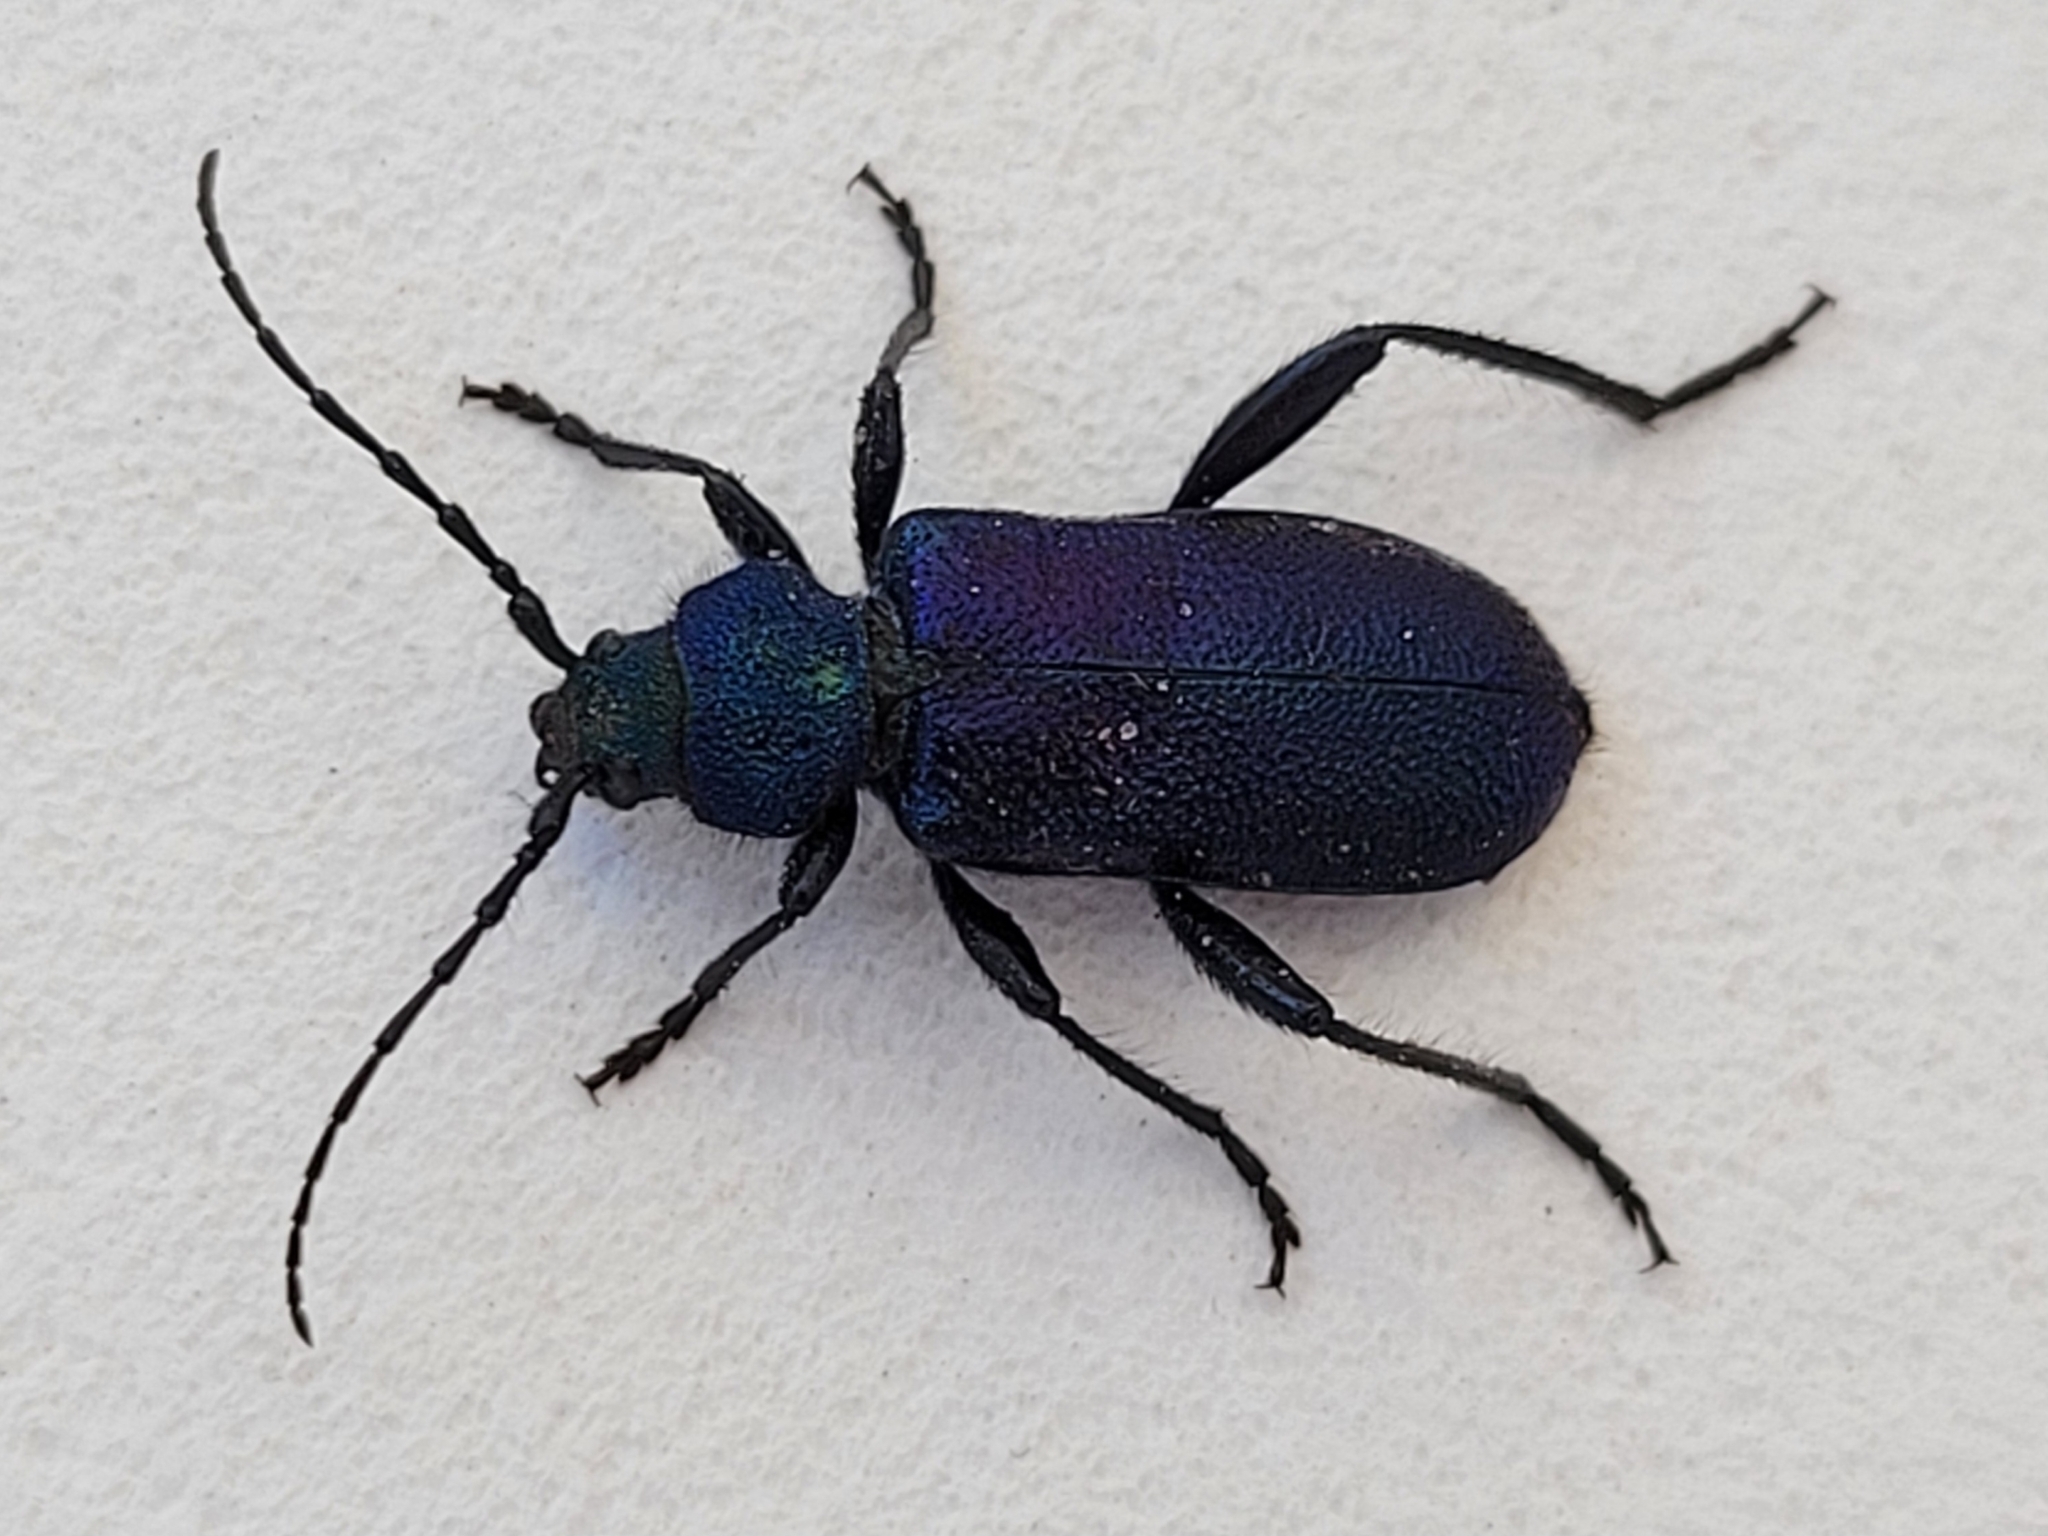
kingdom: Animalia
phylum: Arthropoda
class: Insecta
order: Coleoptera
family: Cerambycidae
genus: Callidium
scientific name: Callidium violaceum
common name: Violet tanbark beetle
